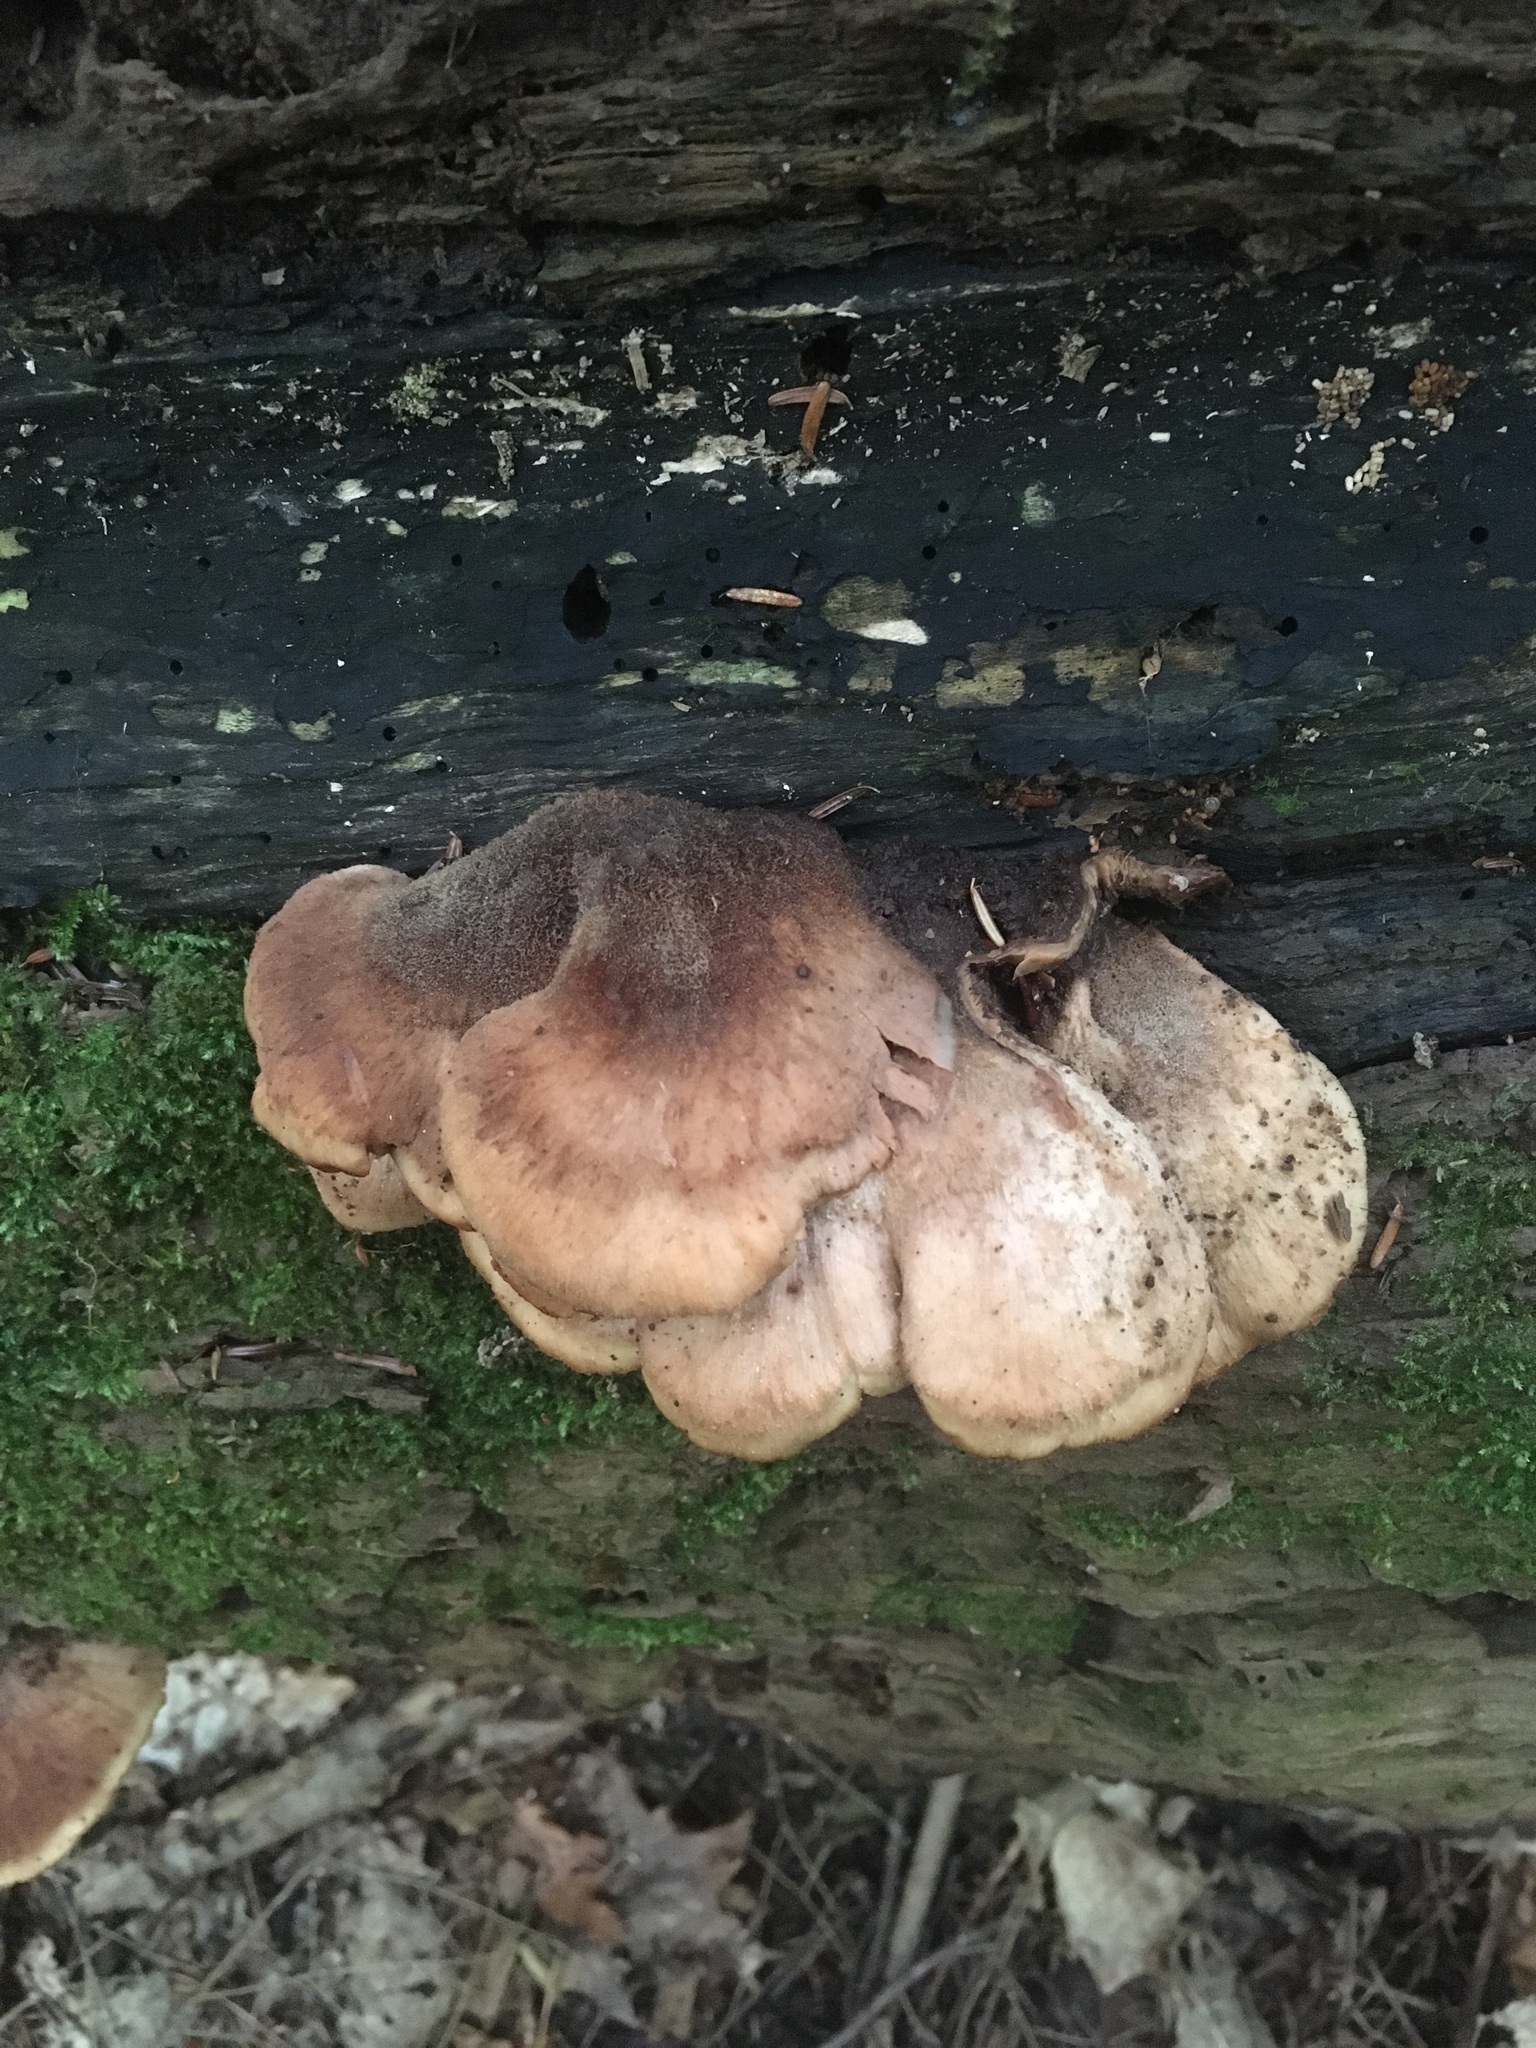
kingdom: Fungi
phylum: Basidiomycota
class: Agaricomycetes
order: Russulales
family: Auriscalpiaceae
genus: Lentinellus
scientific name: Lentinellus ursinus
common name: Bear lentinus
